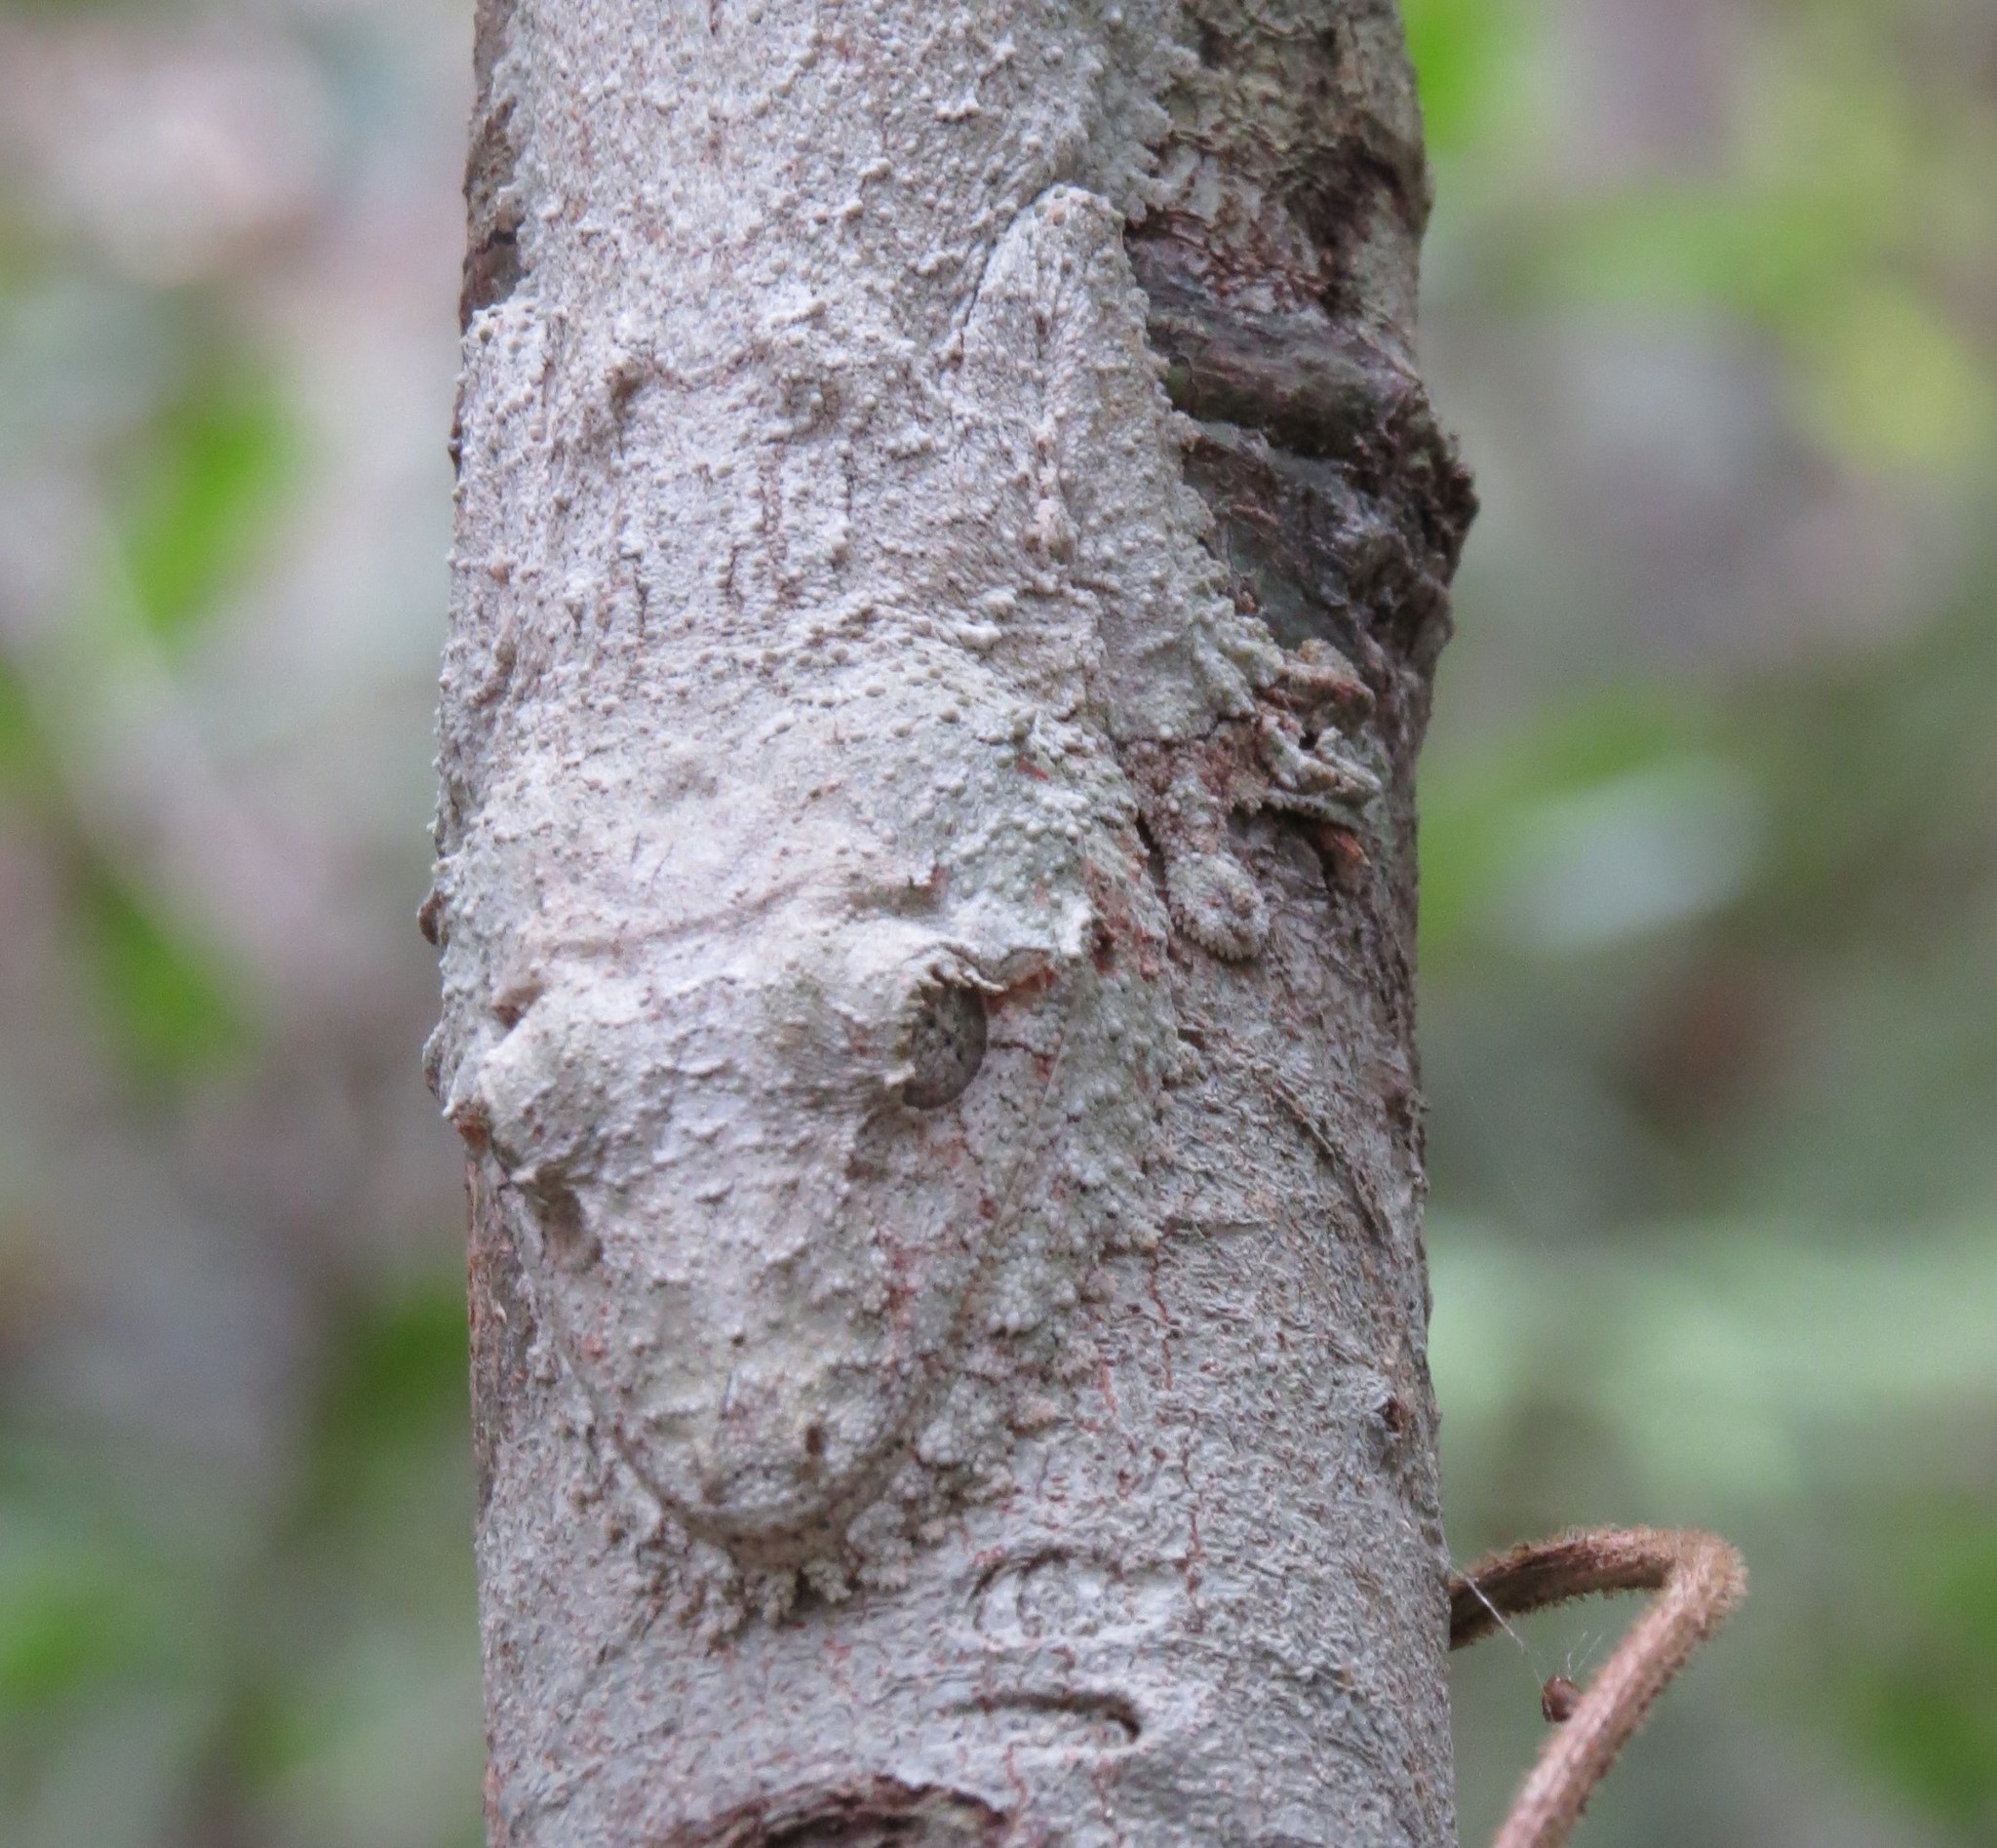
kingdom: Animalia
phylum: Chordata
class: Squamata
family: Gekkonidae
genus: Uroplatus
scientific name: Uroplatus sikorae
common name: Southern flat-tail gecko
